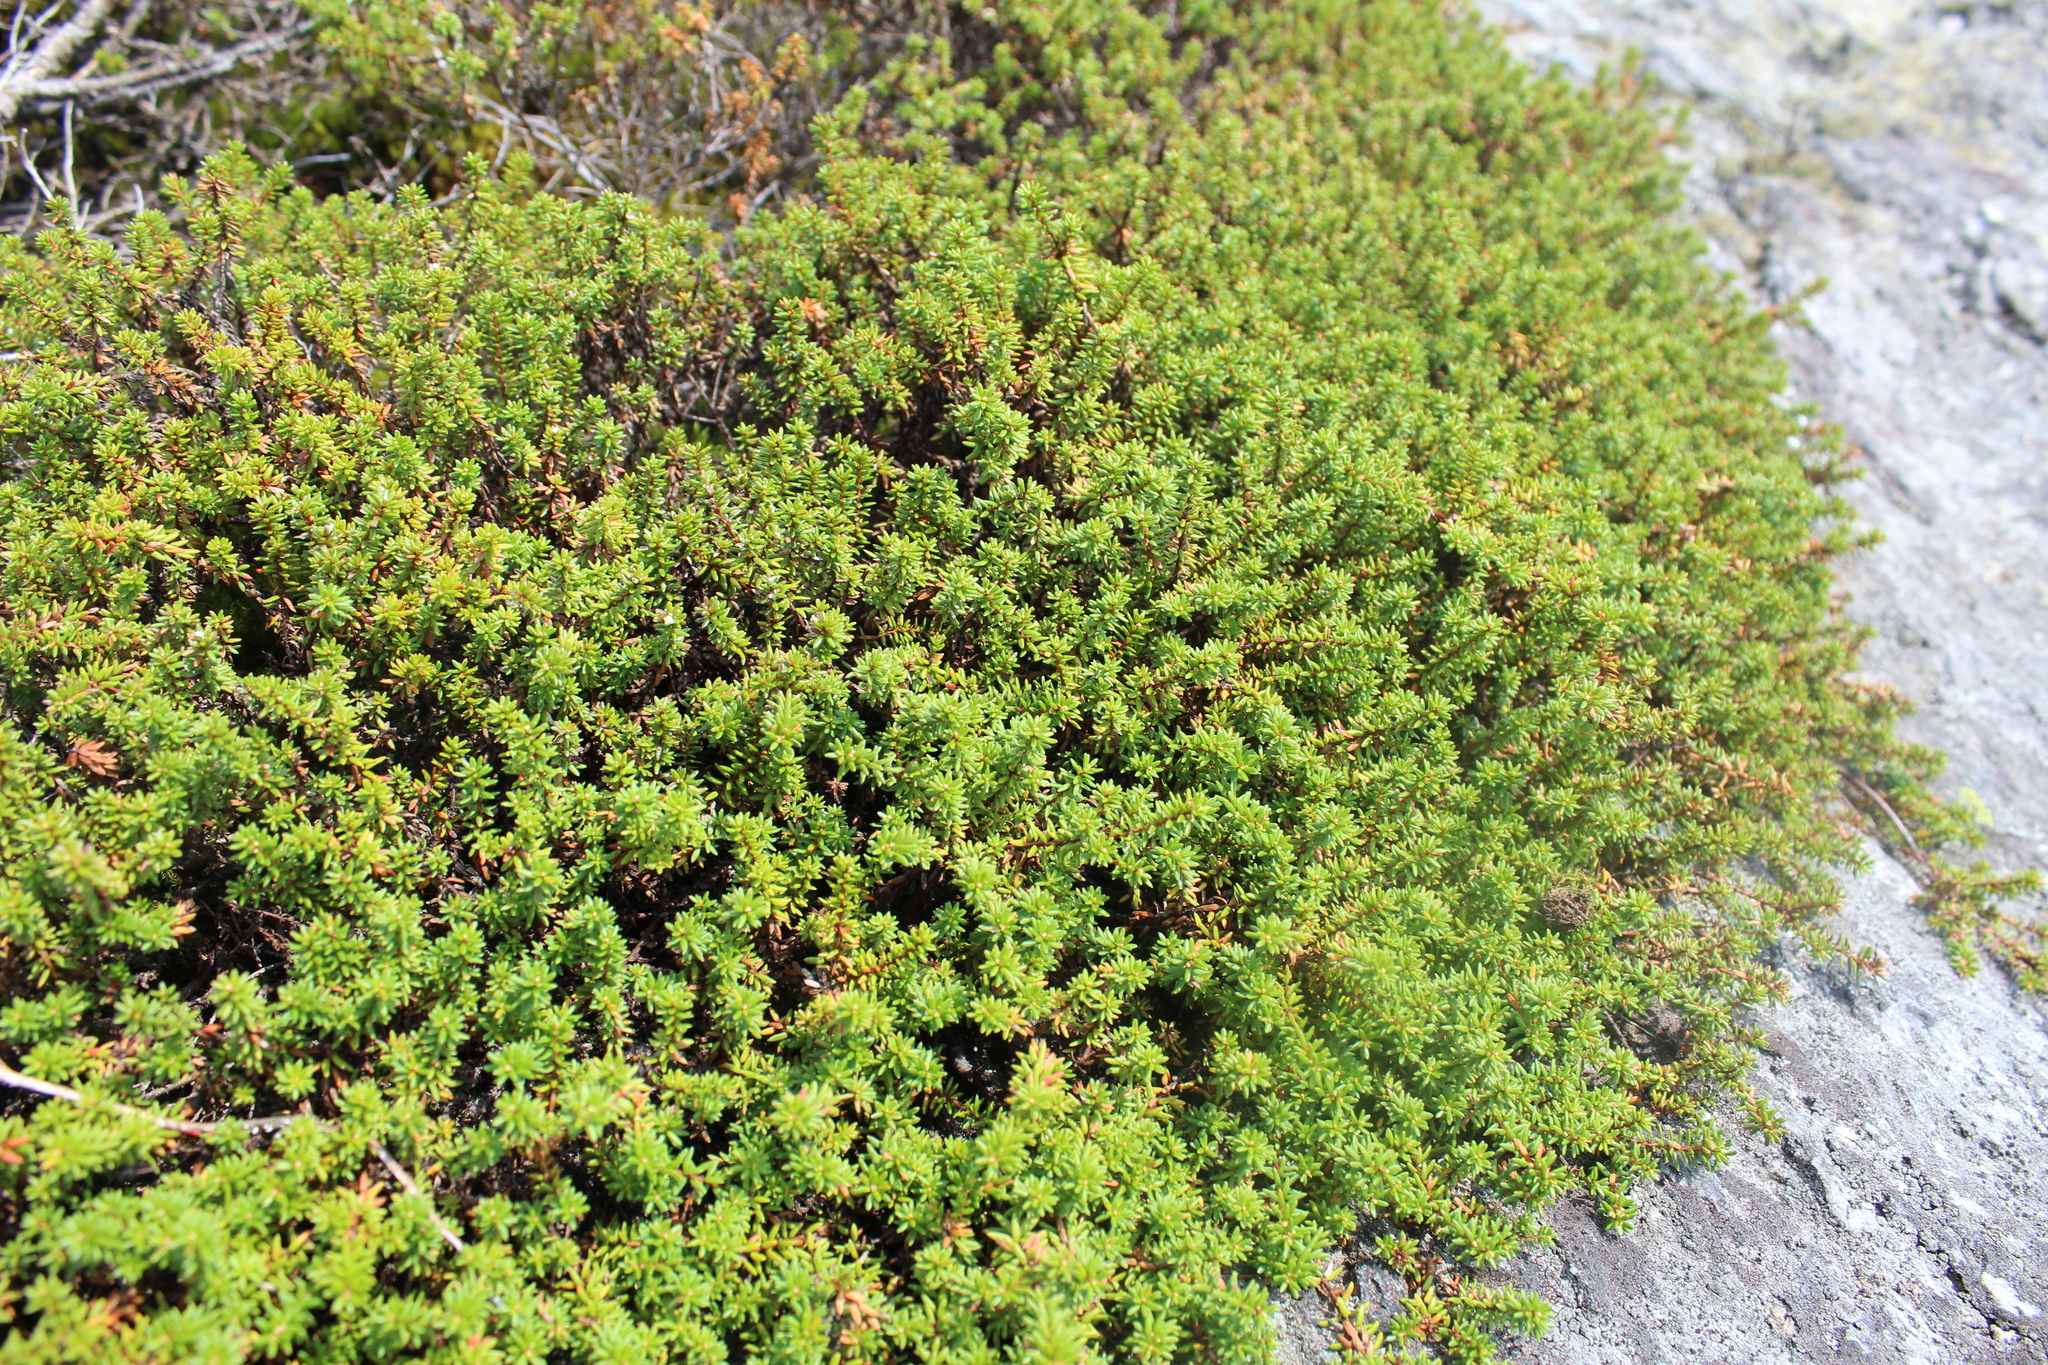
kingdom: Plantae
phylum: Tracheophyta
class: Magnoliopsida
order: Ericales
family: Ericaceae
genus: Empetrum
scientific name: Empetrum hermaphroditum
